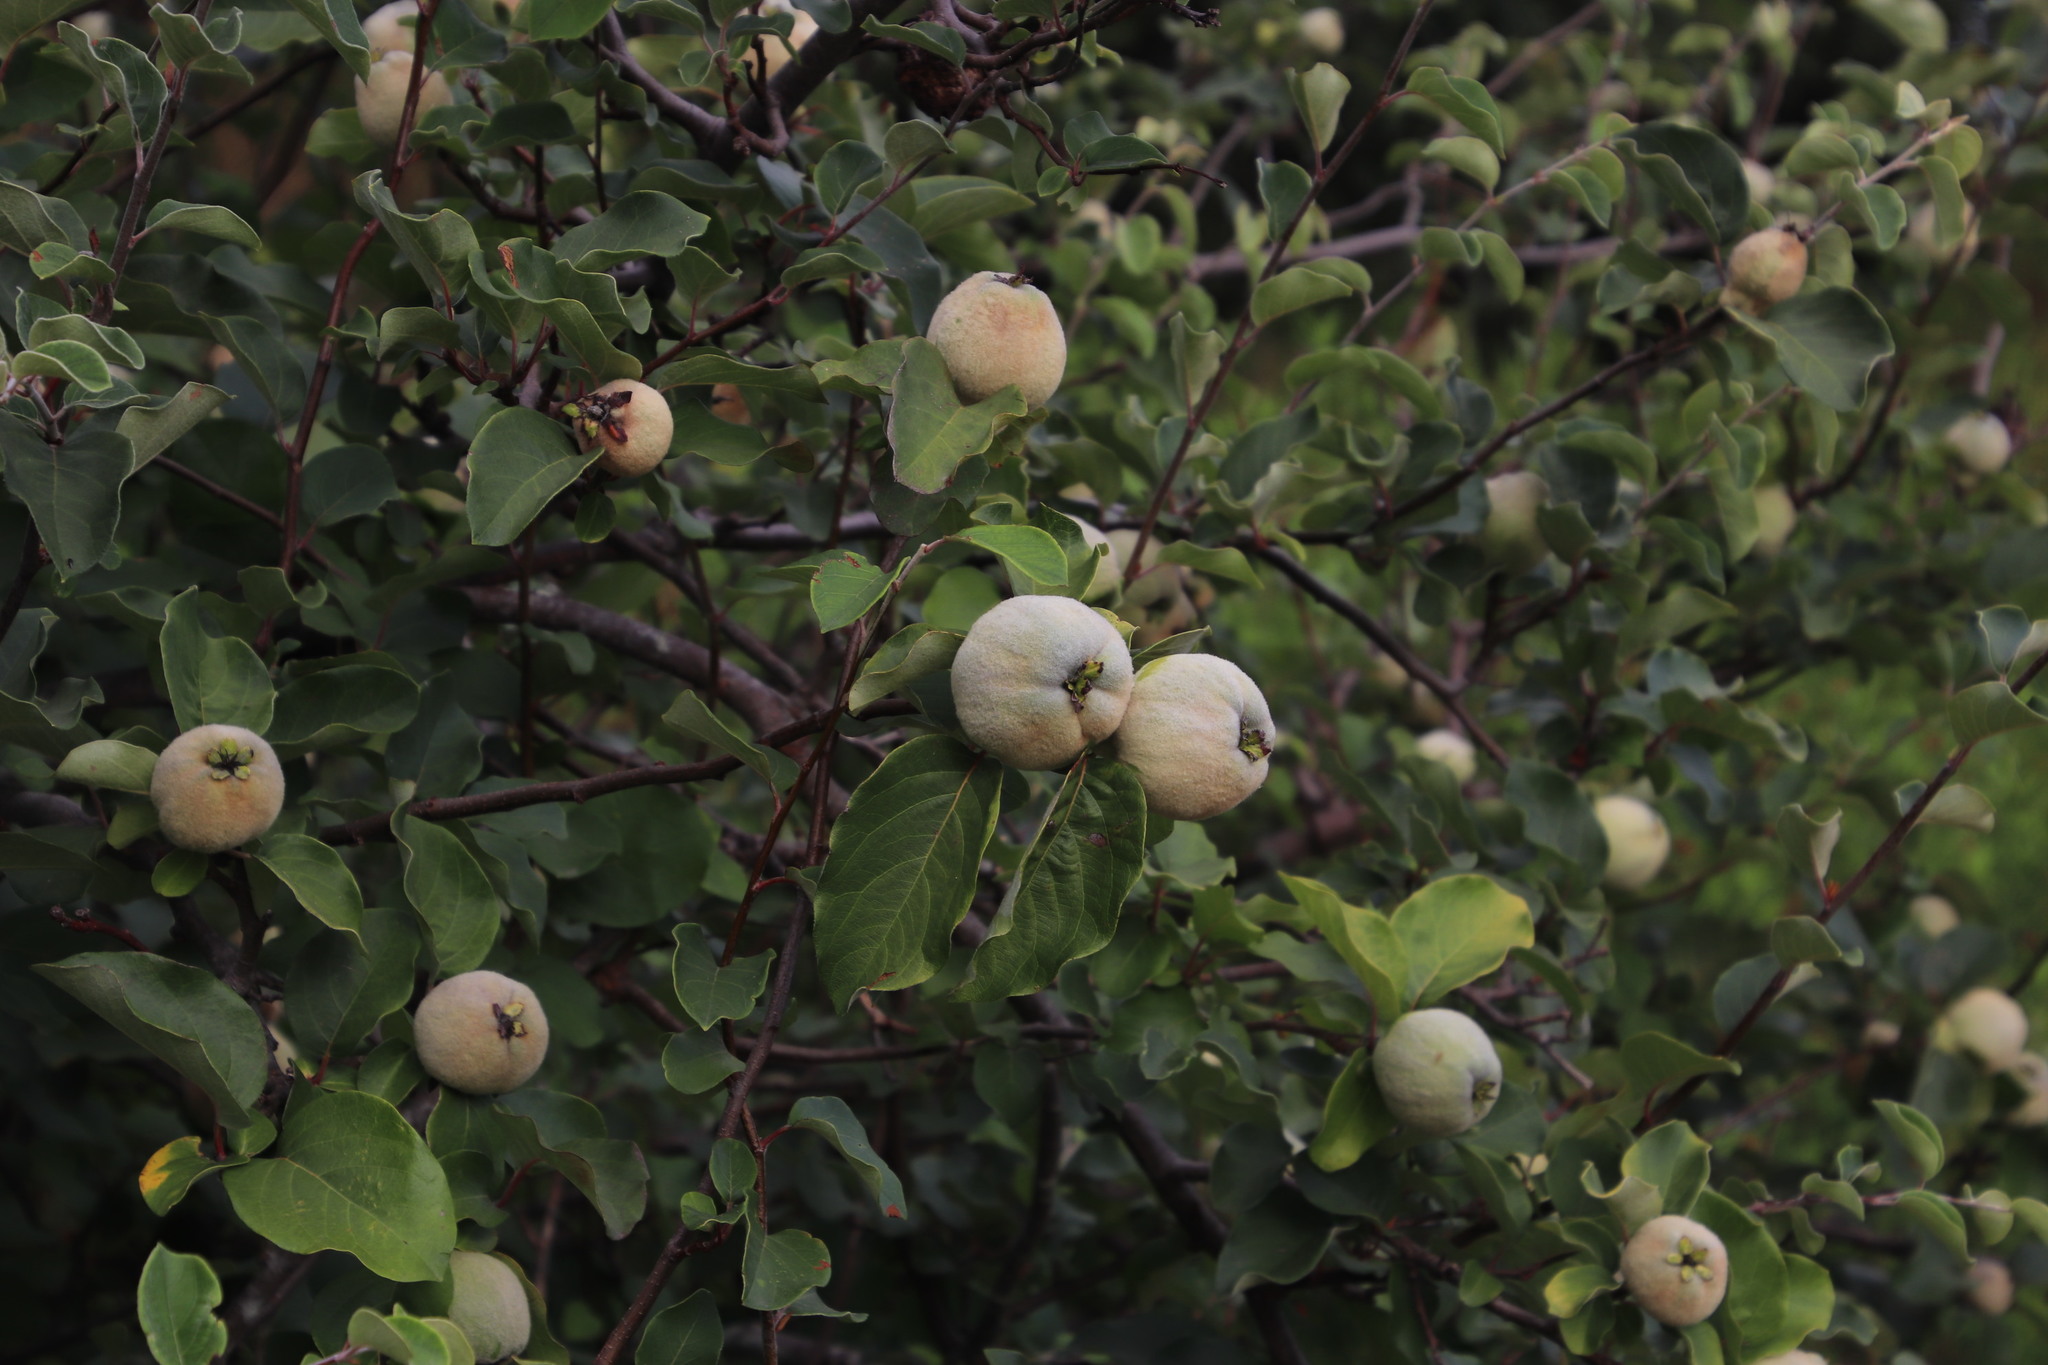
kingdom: Plantae
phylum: Tracheophyta
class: Magnoliopsida
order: Rosales
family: Rosaceae
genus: Cydonia
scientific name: Cydonia oblonga
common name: Quince
